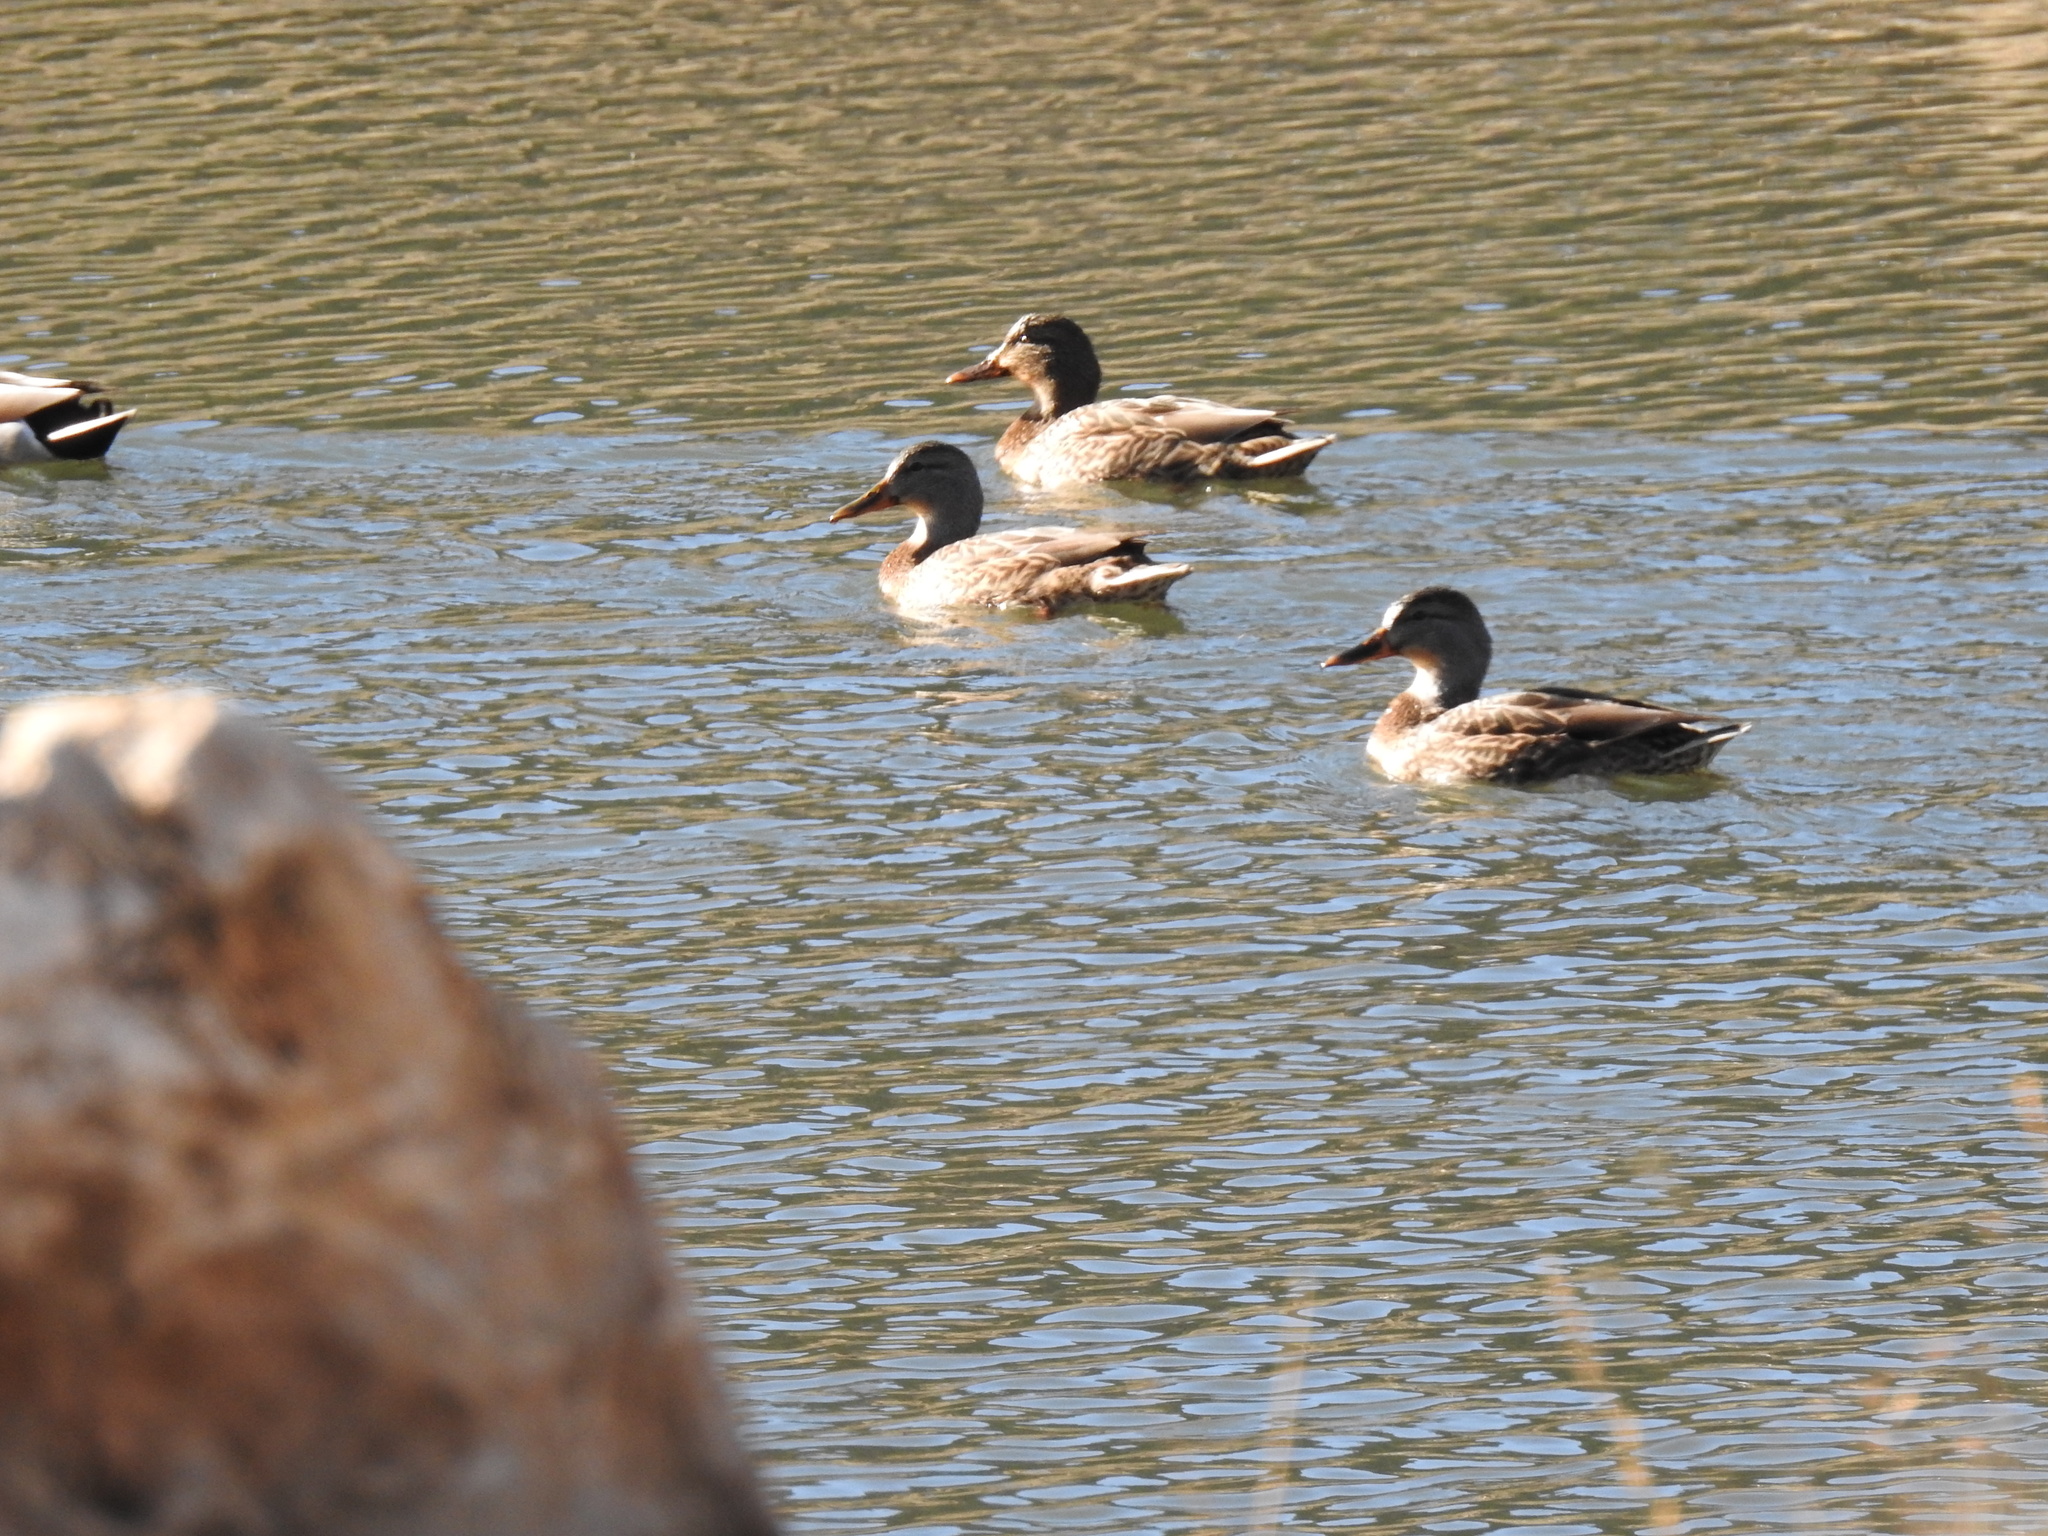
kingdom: Animalia
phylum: Chordata
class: Aves
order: Anseriformes
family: Anatidae
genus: Anas
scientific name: Anas platyrhynchos
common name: Mallard
